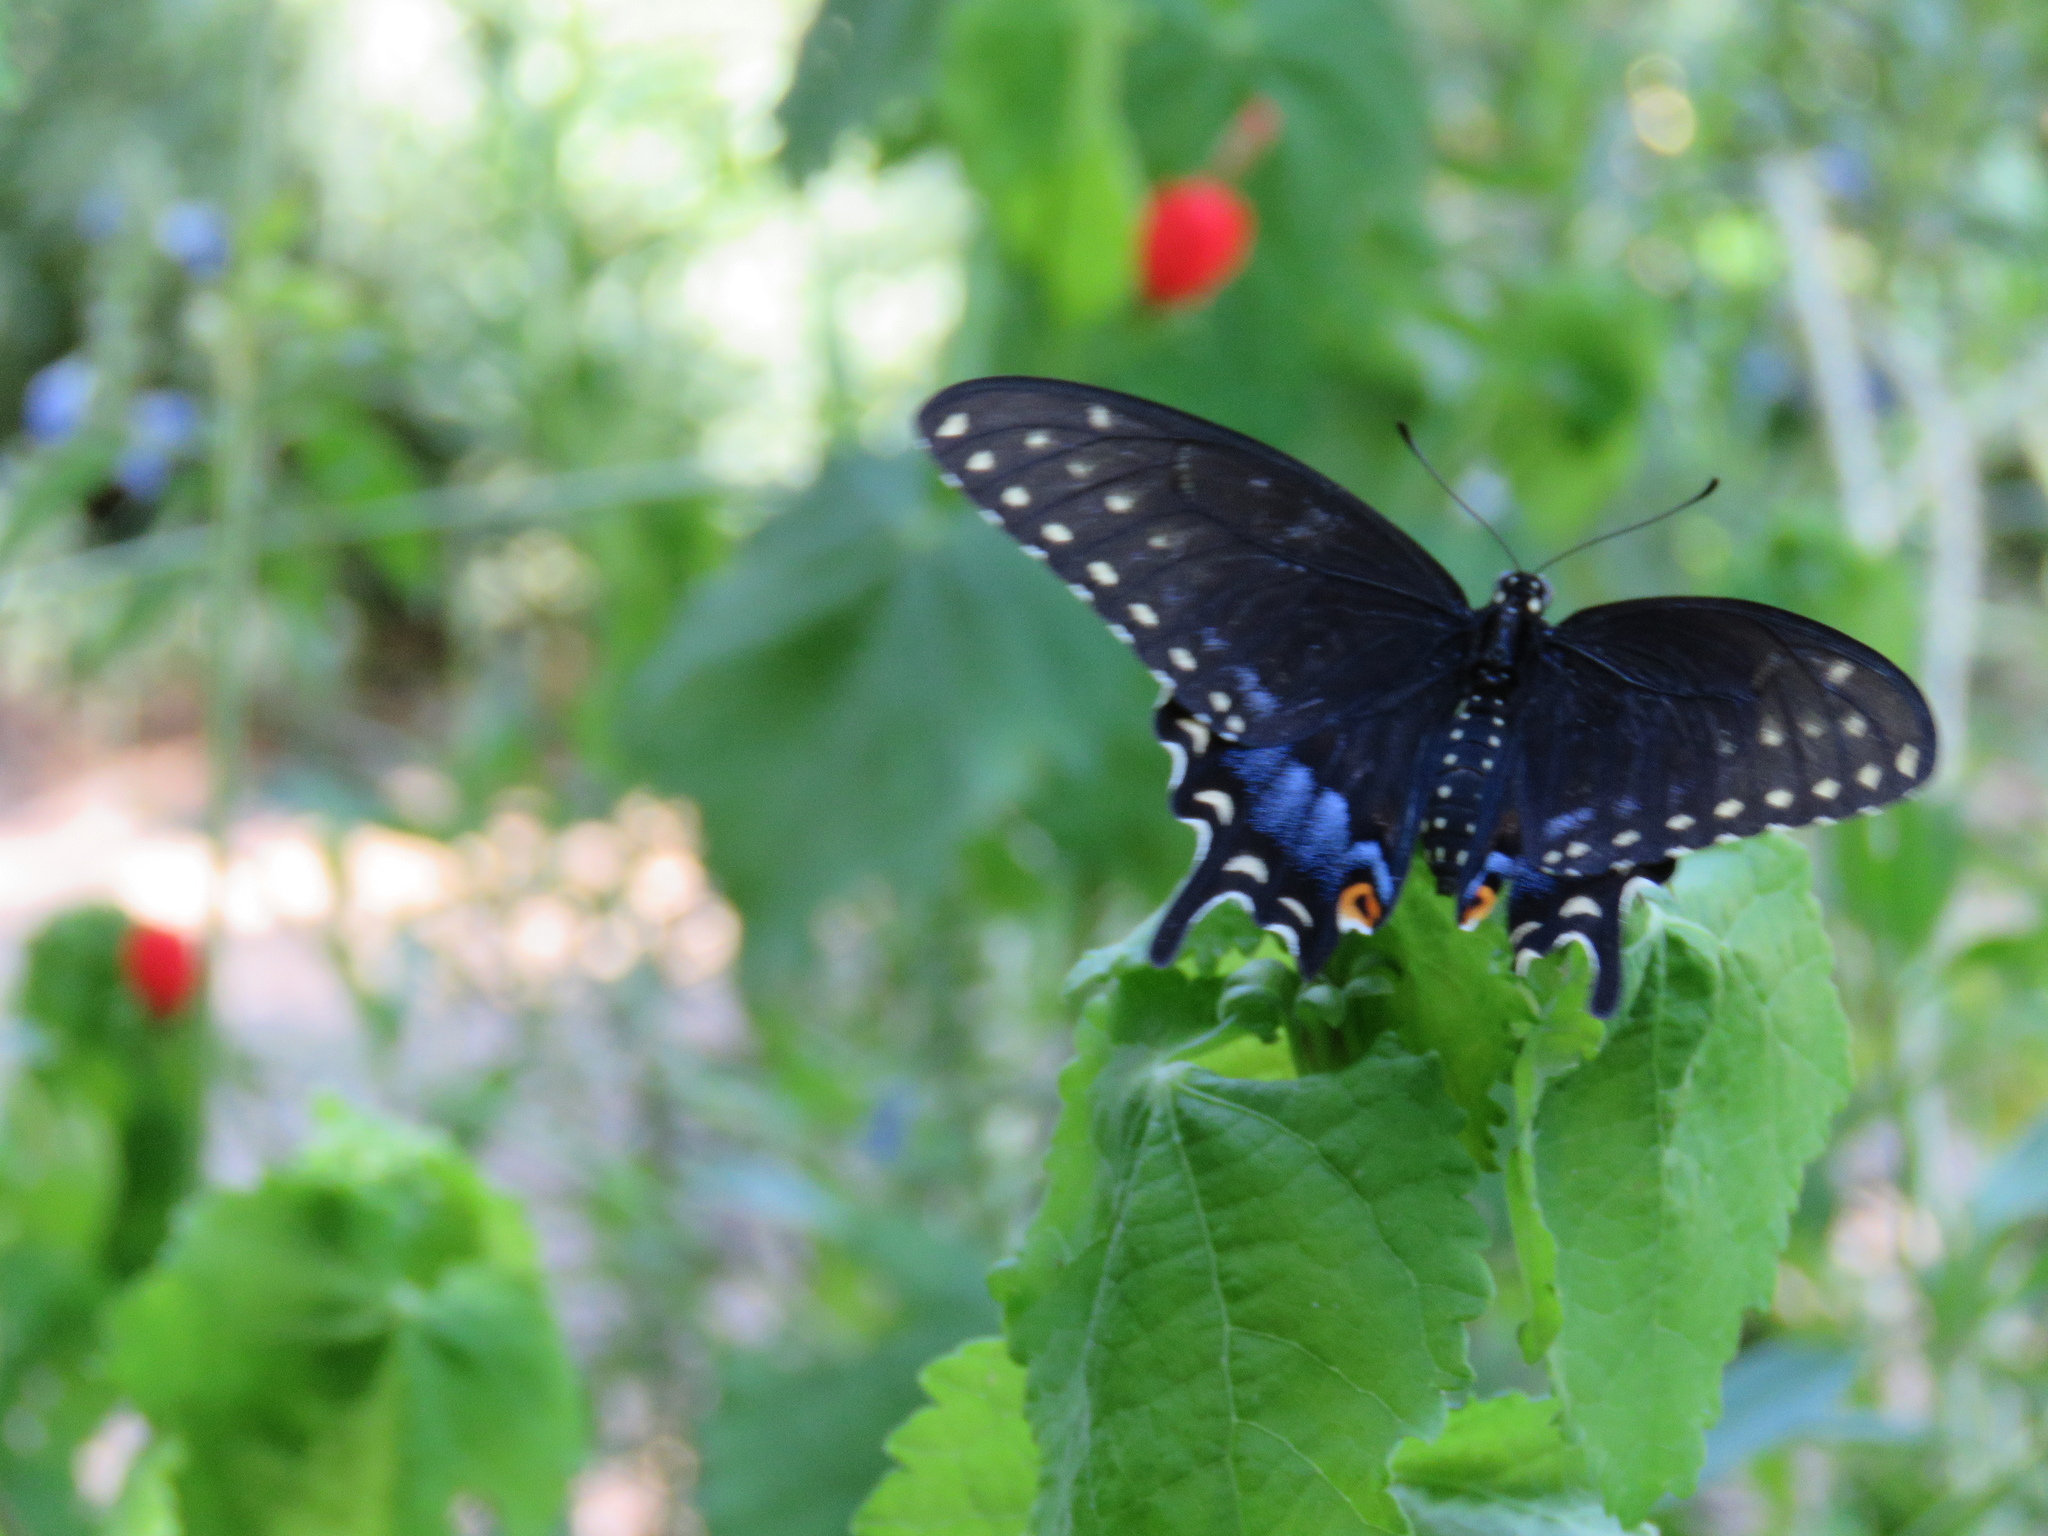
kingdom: Animalia
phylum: Arthropoda
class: Insecta
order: Lepidoptera
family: Papilionidae
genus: Papilio
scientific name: Papilio polyxenes
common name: Black swallowtail
